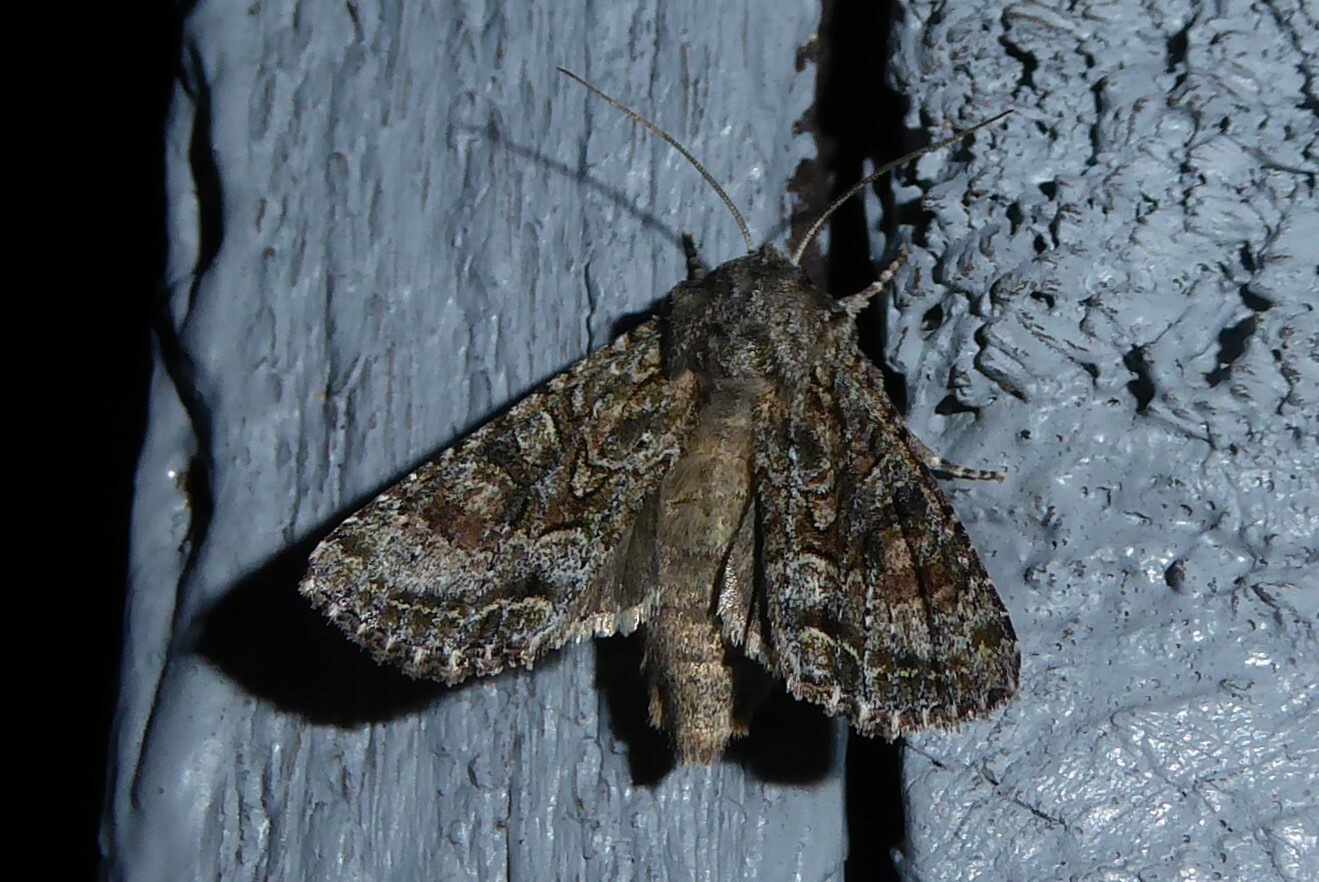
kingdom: Animalia
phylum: Arthropoda
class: Insecta
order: Lepidoptera
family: Noctuidae
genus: Ichneutica
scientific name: Ichneutica mutans
